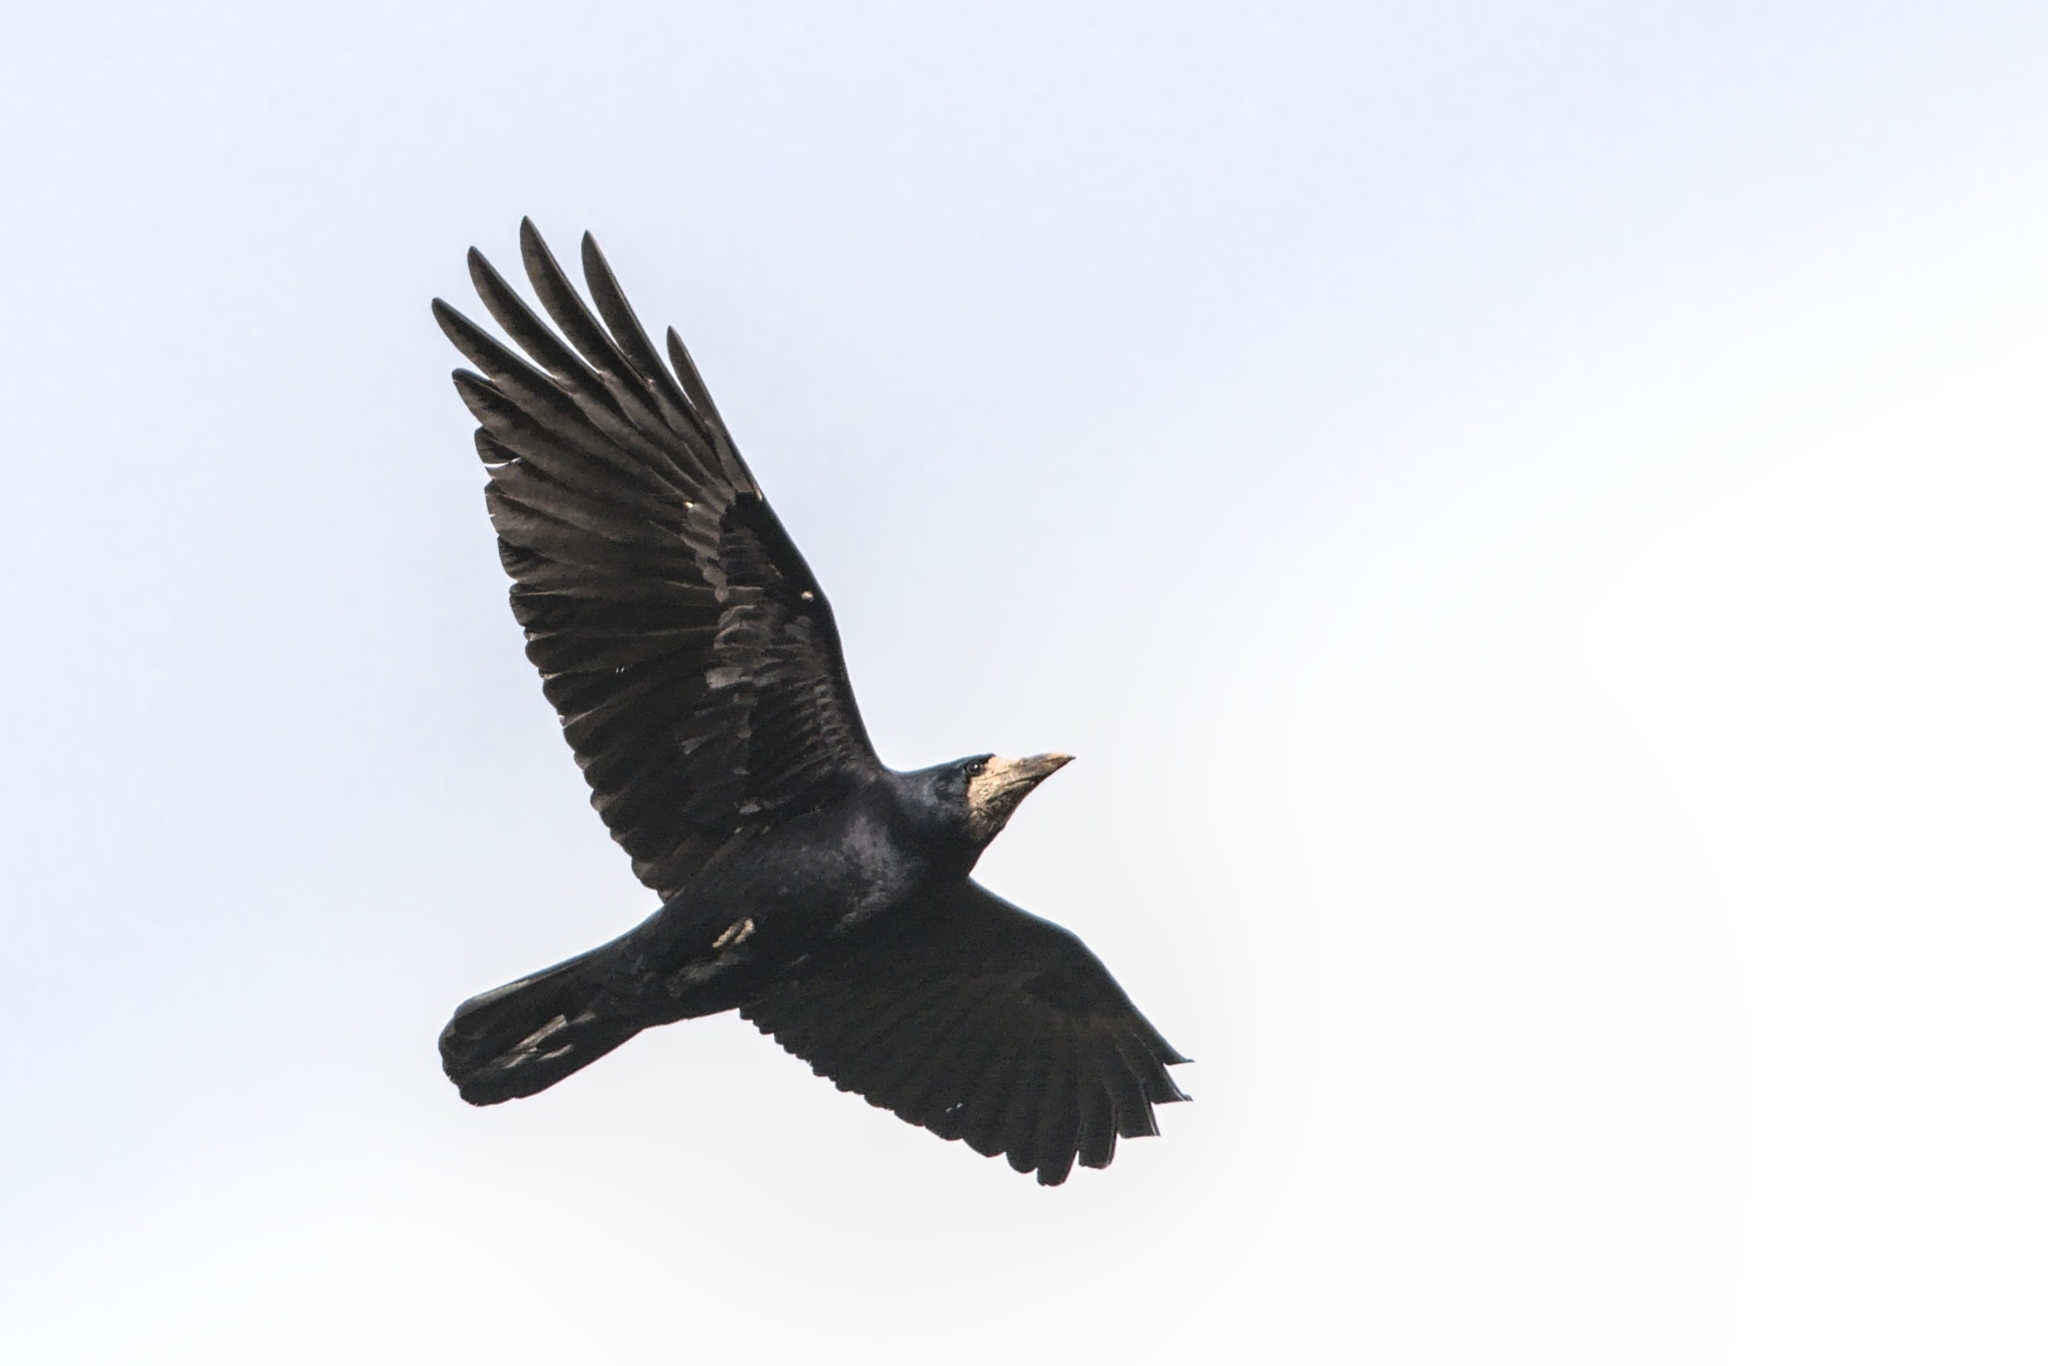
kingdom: Animalia
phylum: Chordata
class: Aves
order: Passeriformes
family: Corvidae
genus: Corvus
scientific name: Corvus frugilegus
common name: Rook
